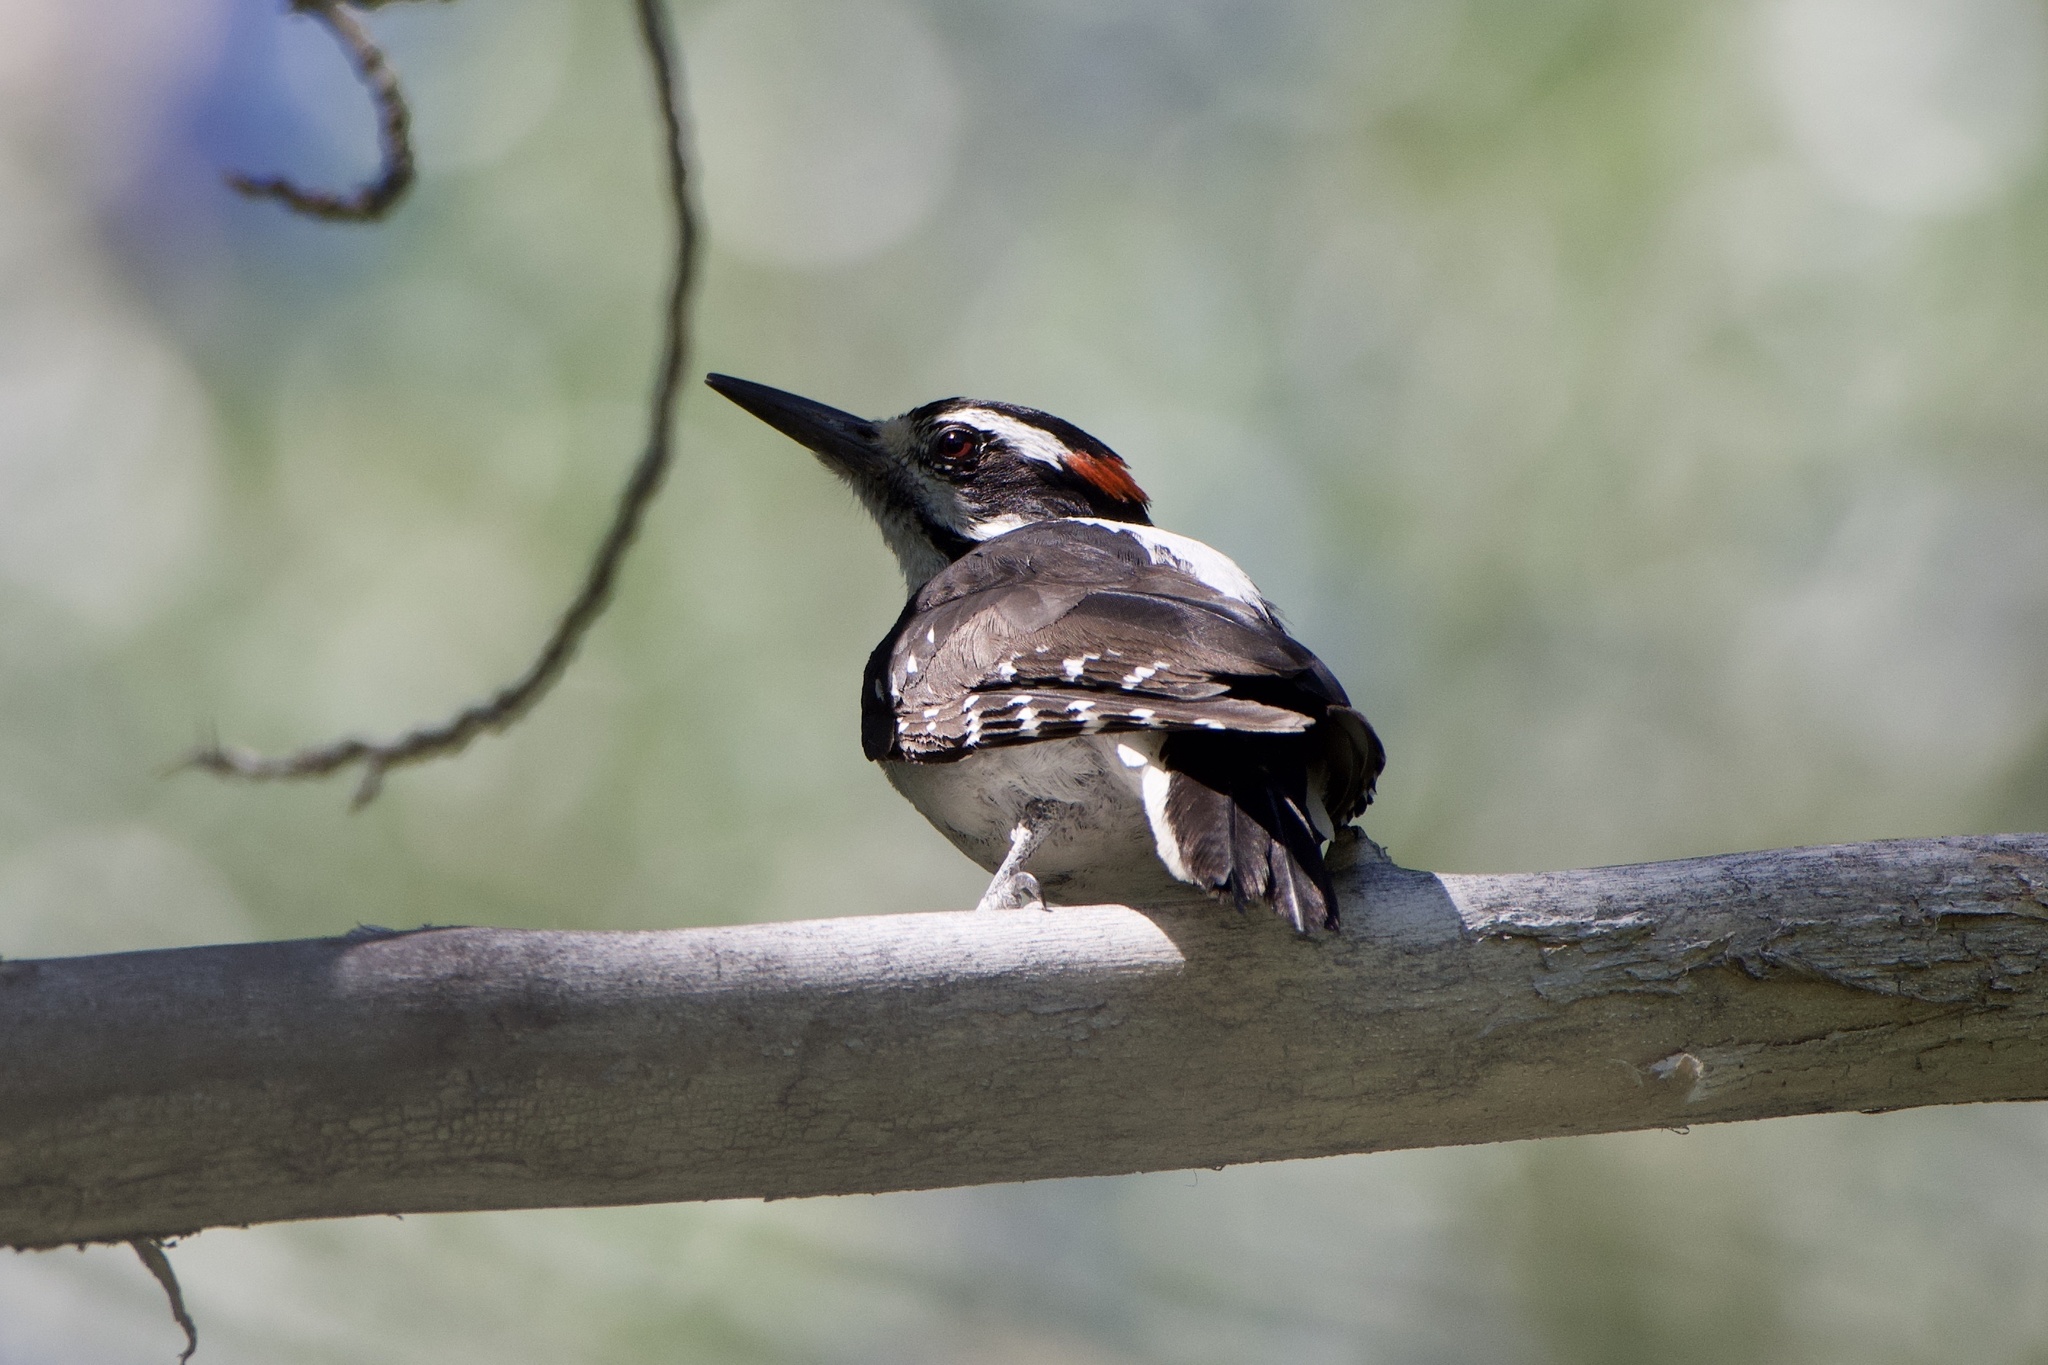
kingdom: Animalia
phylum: Chordata
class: Aves
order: Piciformes
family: Picidae
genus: Leuconotopicus
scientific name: Leuconotopicus villosus
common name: Hairy woodpecker
